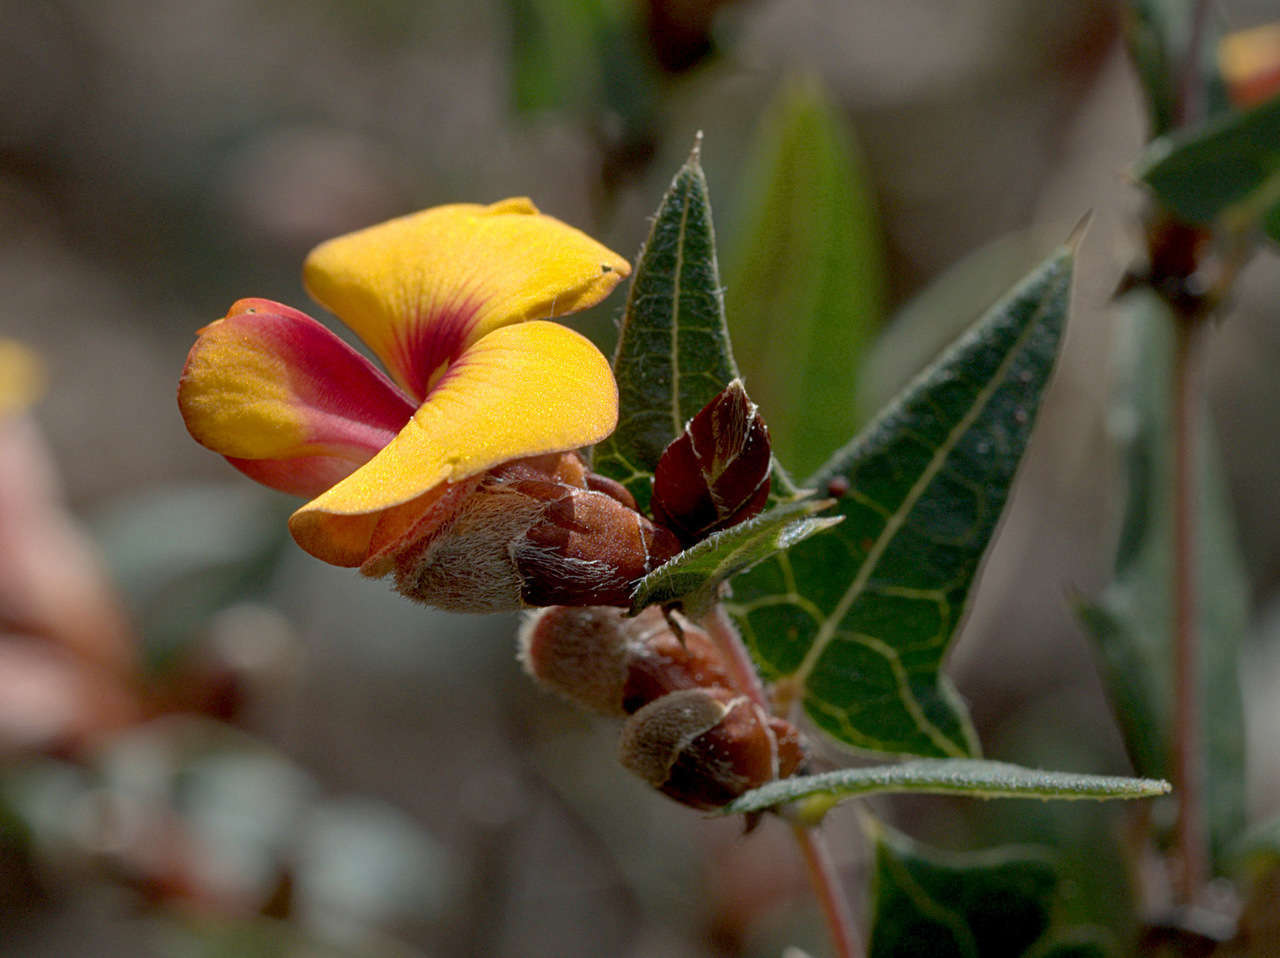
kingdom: Plantae
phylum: Tracheophyta
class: Magnoliopsida
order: Fabales
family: Fabaceae
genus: Platylobium
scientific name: Platylobium obtusangulum
